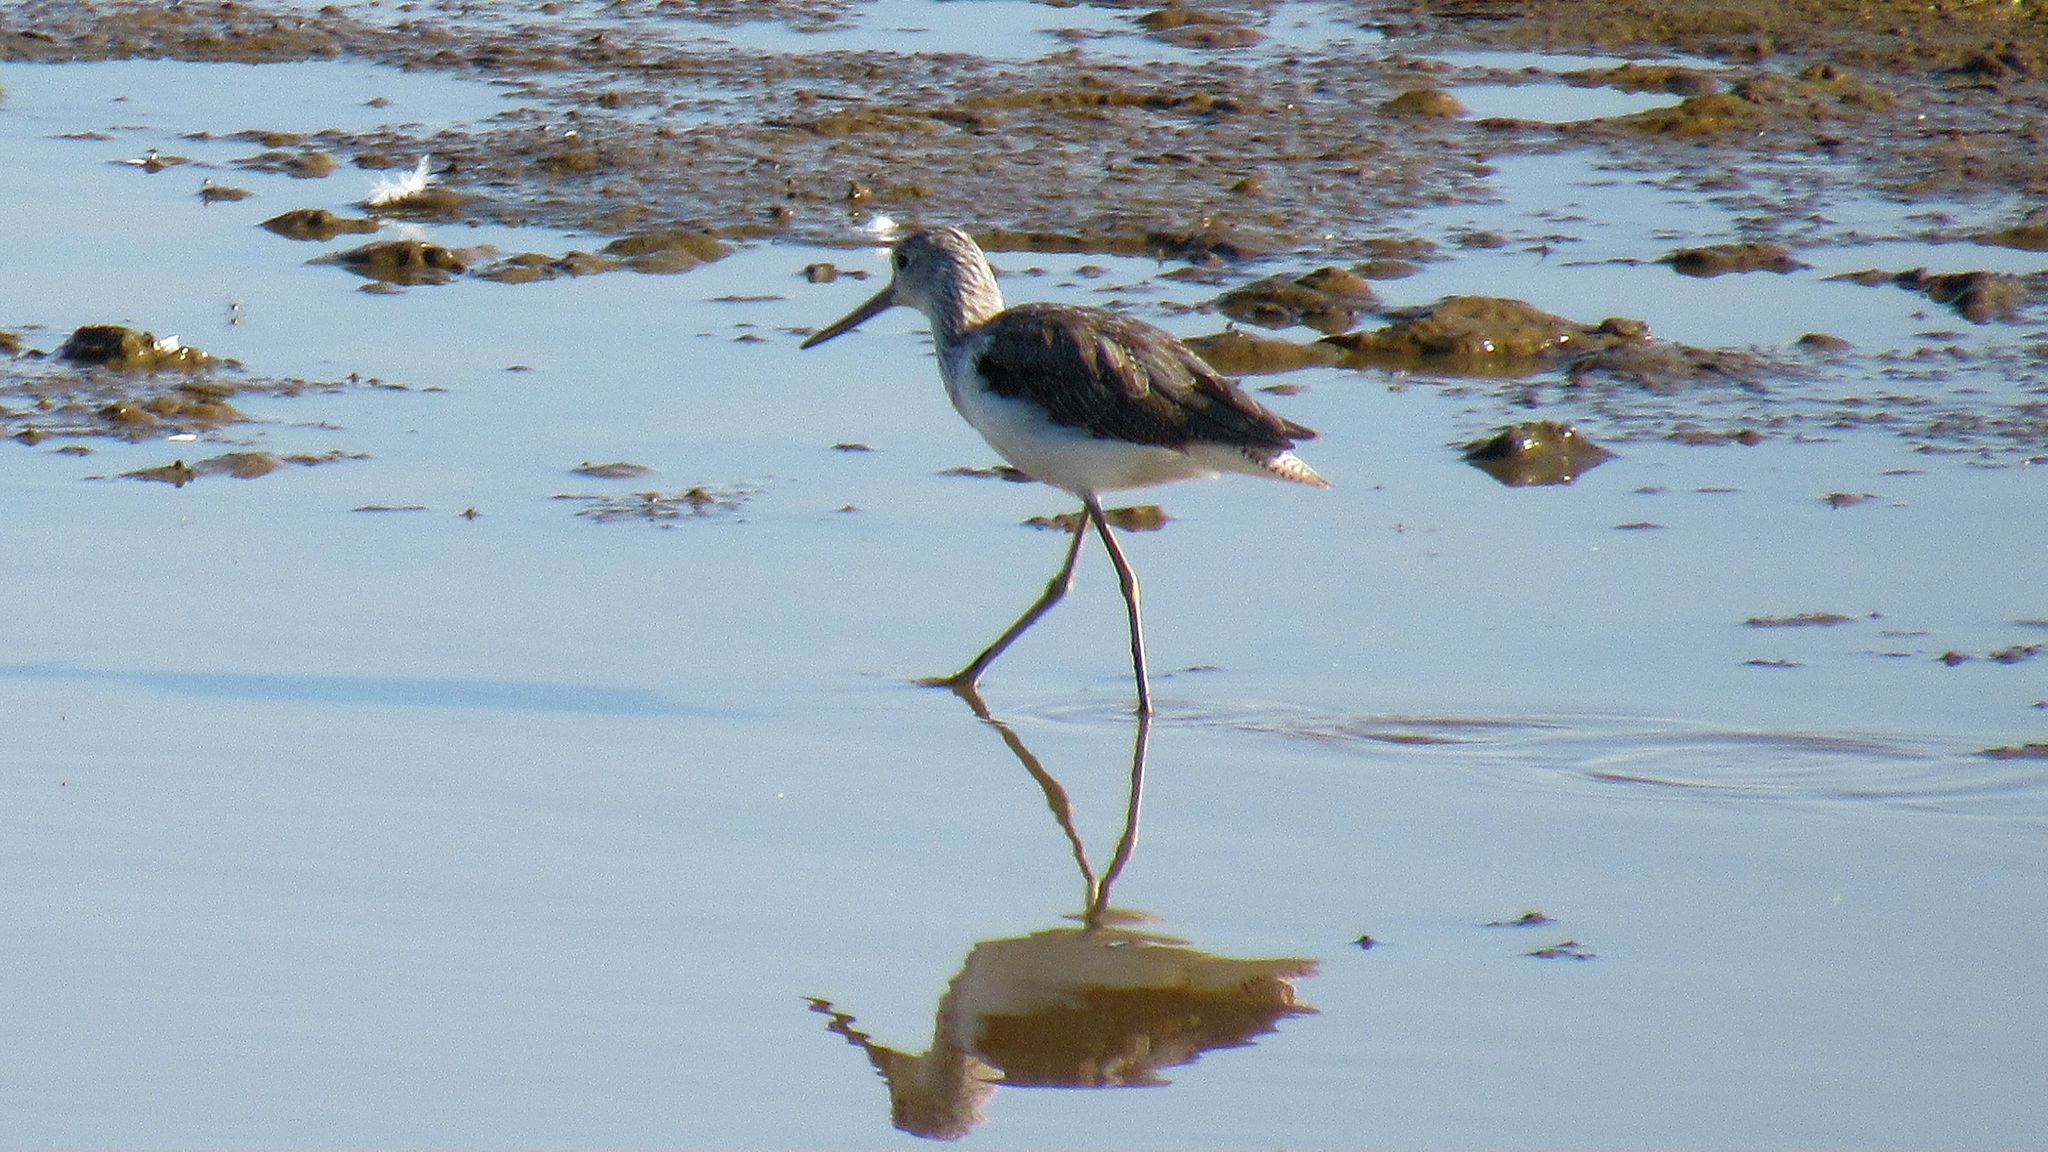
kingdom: Animalia
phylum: Chordata
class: Aves
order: Charadriiformes
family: Scolopacidae
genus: Tringa
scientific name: Tringa nebularia
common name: Common greenshank
